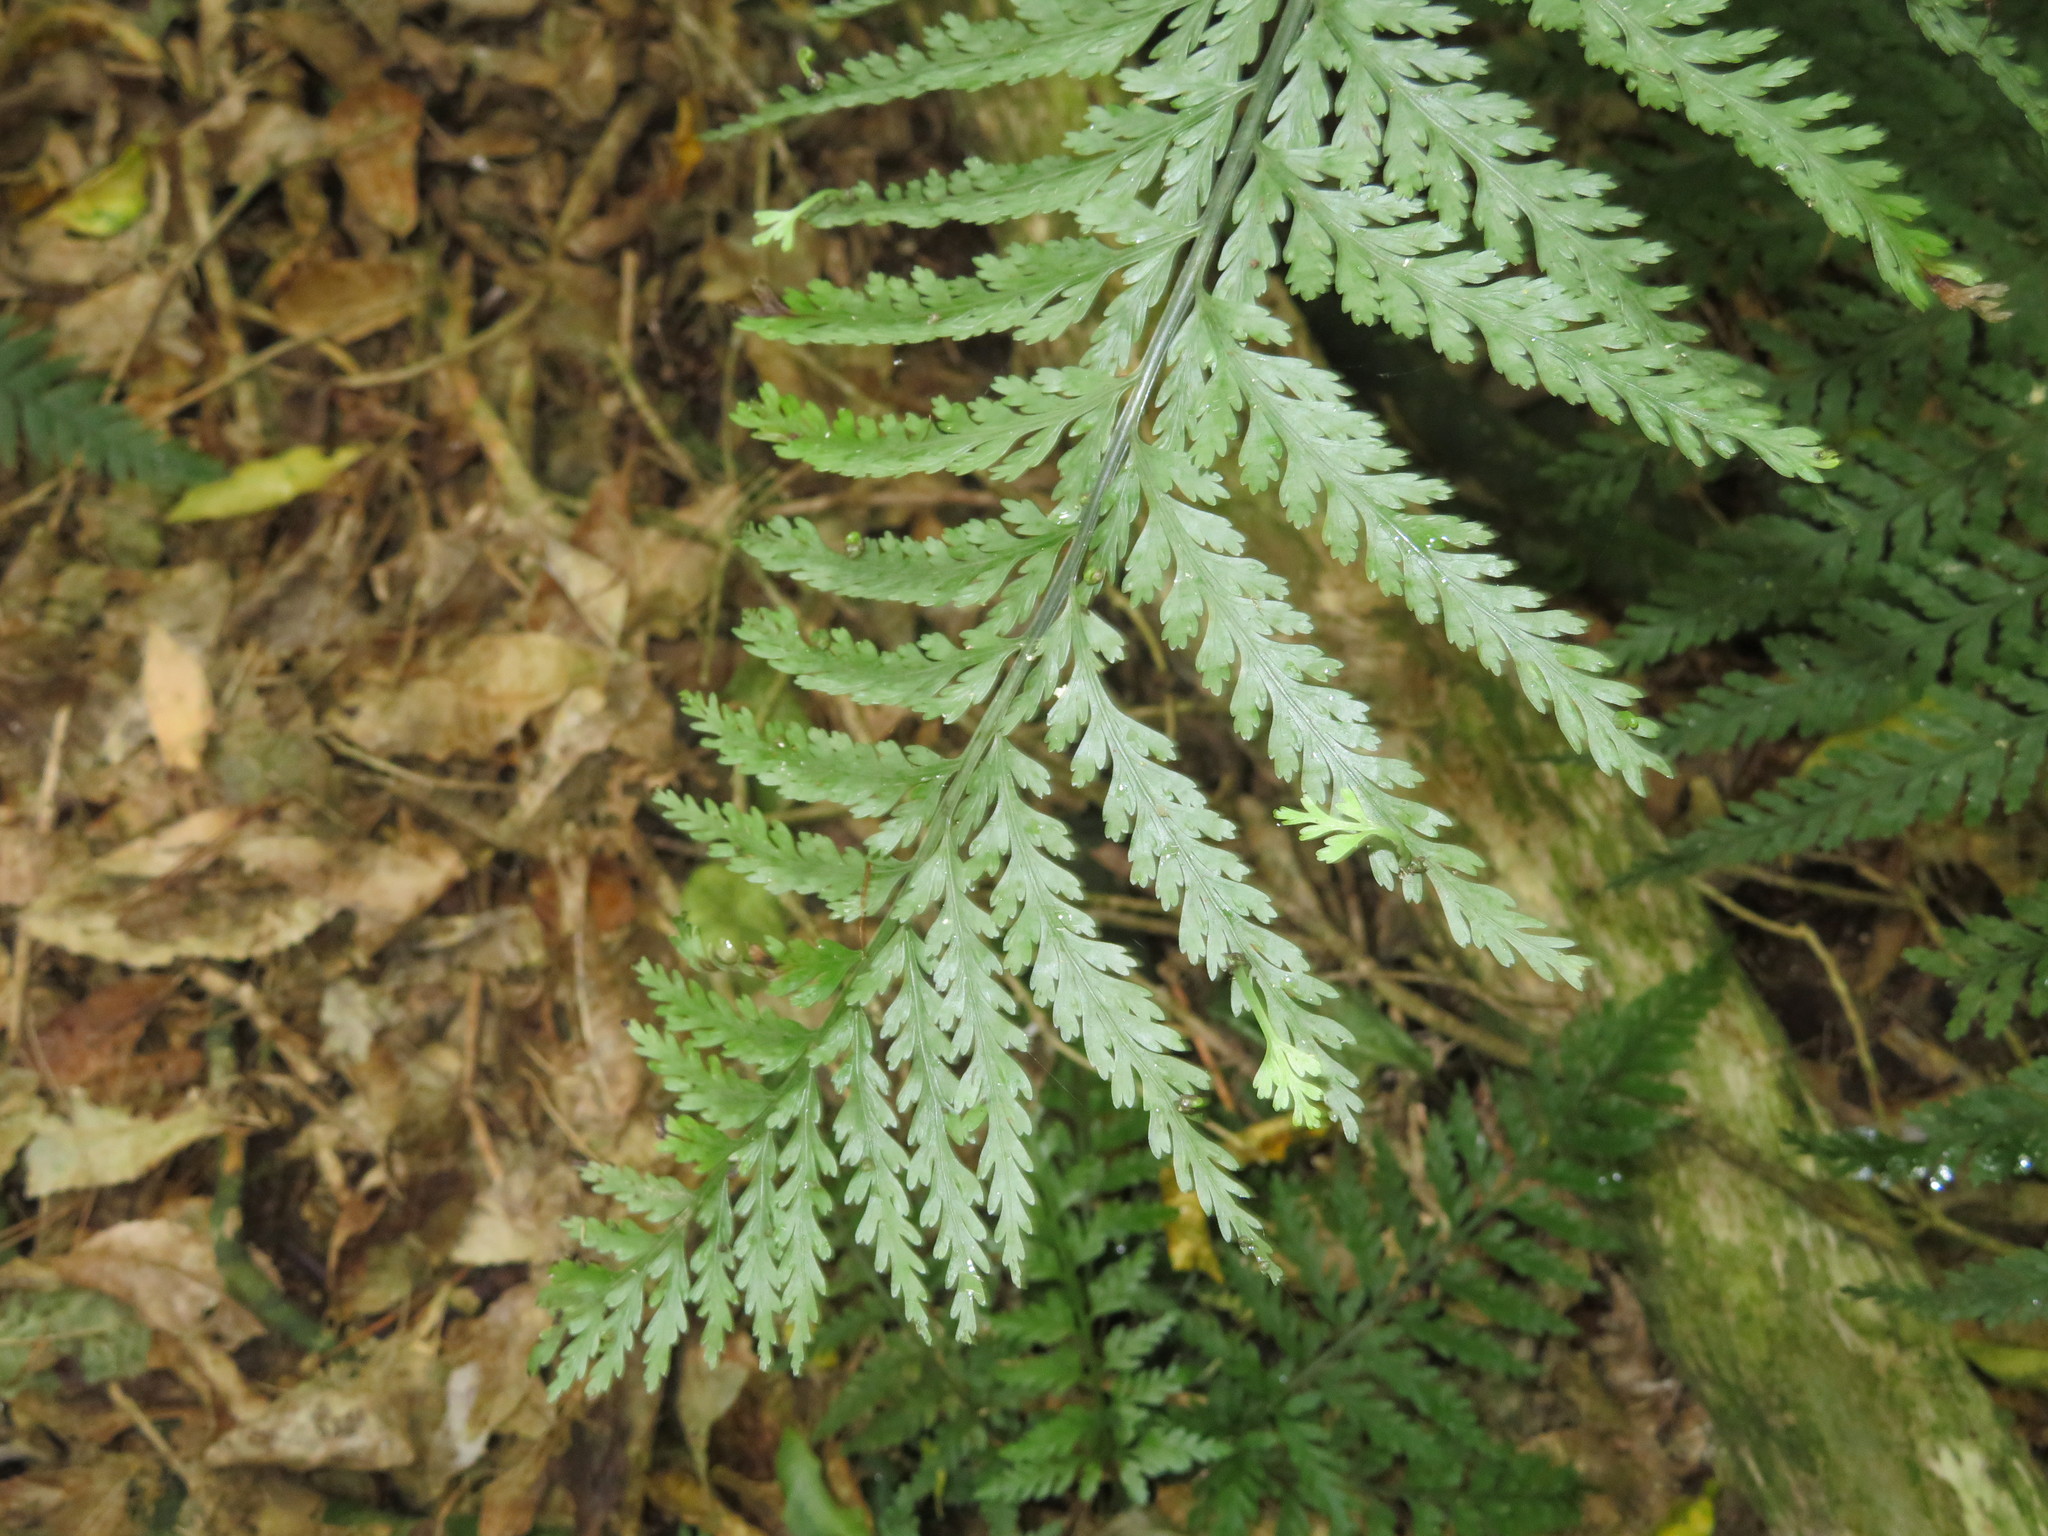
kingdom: Plantae
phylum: Tracheophyta
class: Polypodiopsida
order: Polypodiales
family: Aspleniaceae
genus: Asplenium
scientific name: Asplenium bulbiferum
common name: Mother fern
